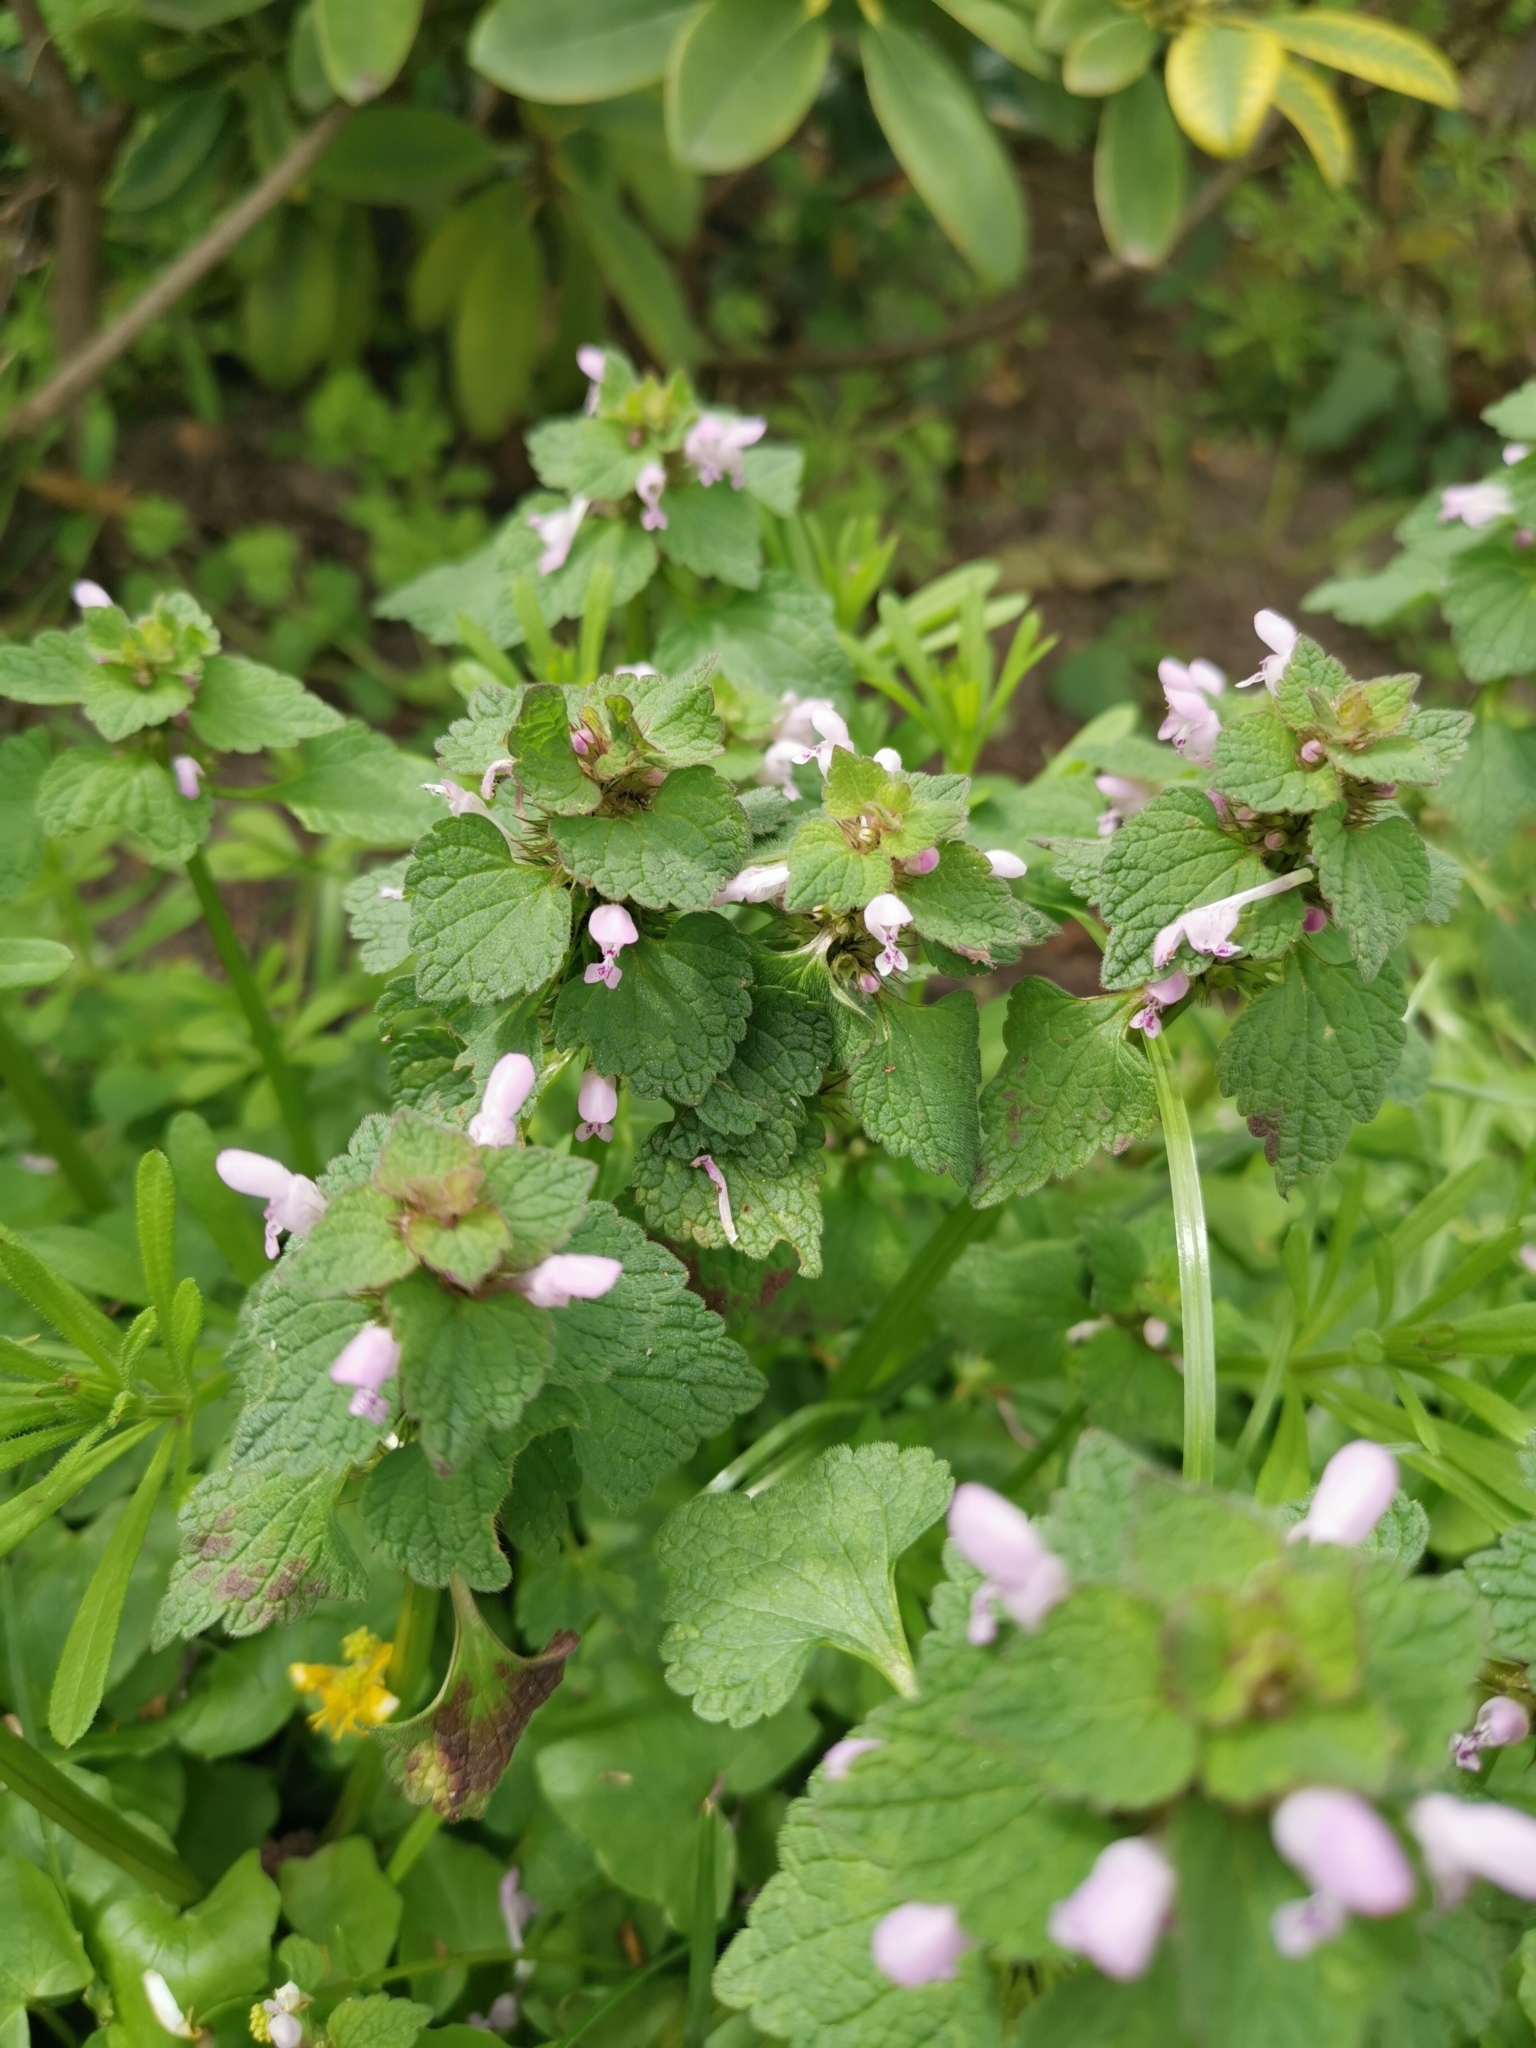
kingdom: Plantae
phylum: Tracheophyta
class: Magnoliopsida
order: Lamiales
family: Lamiaceae
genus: Lamium
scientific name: Lamium purpureum
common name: Red dead-nettle
